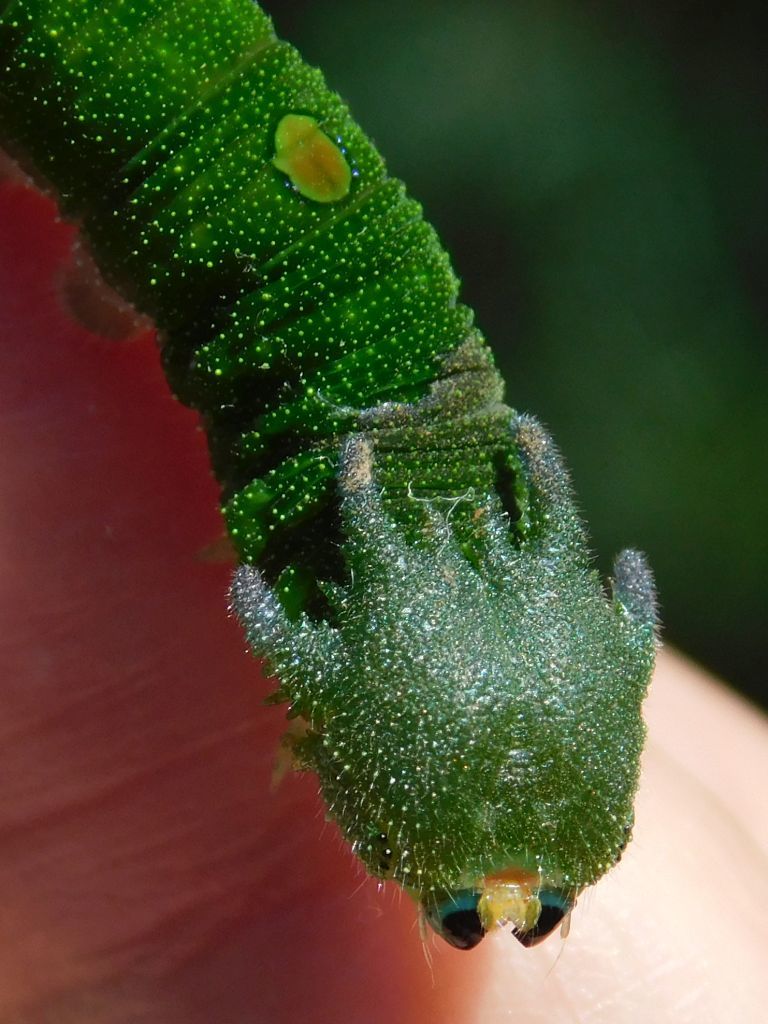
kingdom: Animalia
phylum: Arthropoda
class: Insecta
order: Lepidoptera
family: Nymphalidae
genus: Charaxes
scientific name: Charaxes brutus
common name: White-barred charaxes
